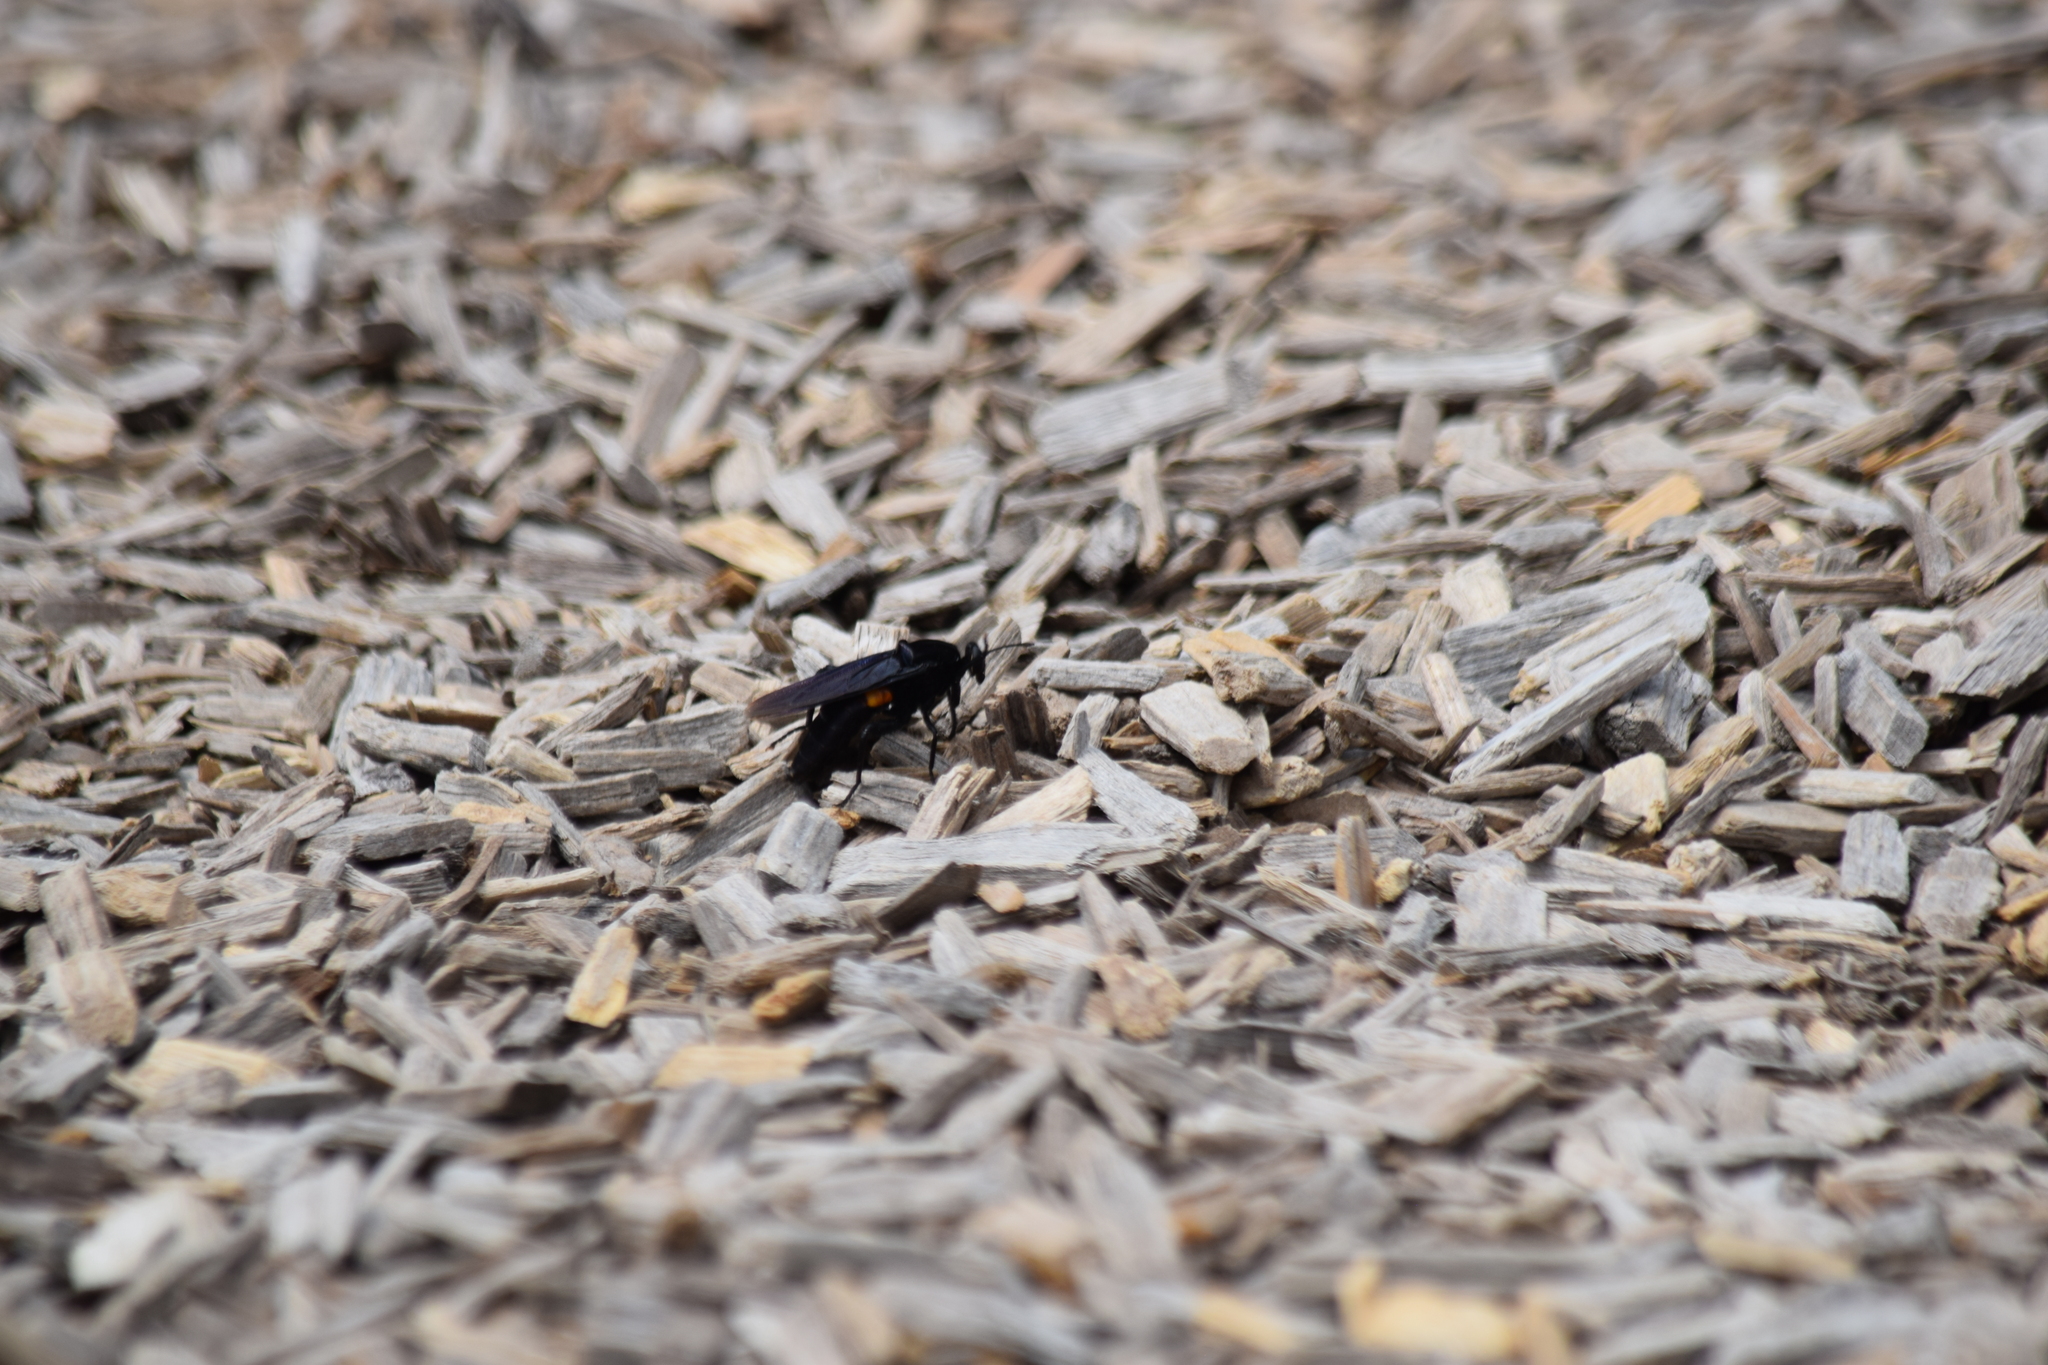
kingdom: Animalia
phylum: Arthropoda
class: Insecta
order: Diptera
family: Mydidae
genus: Mydas
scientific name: Mydas clavatus
